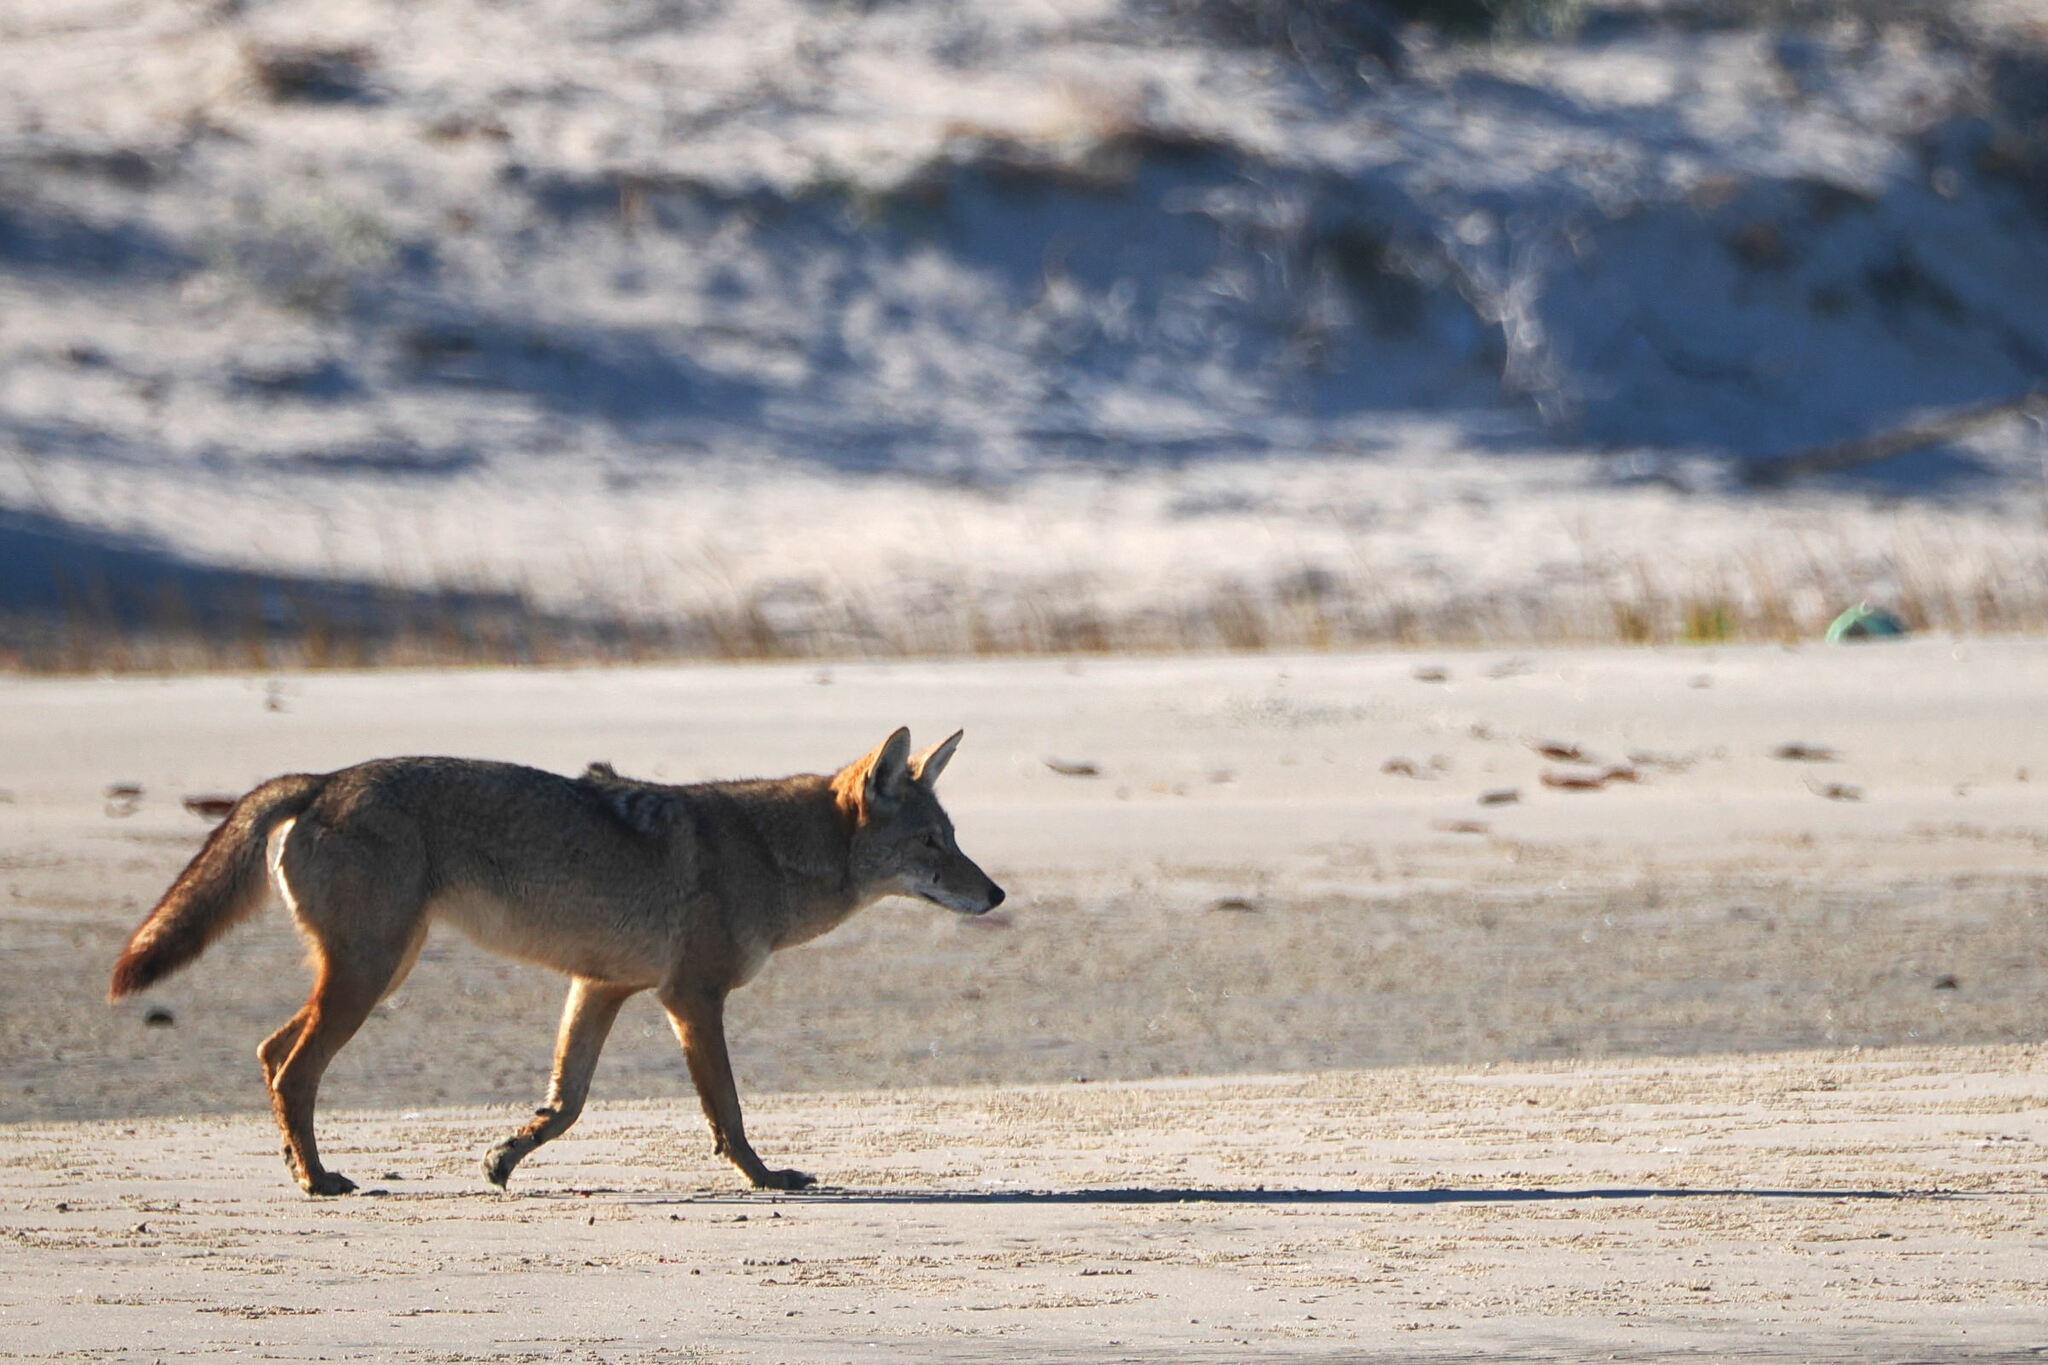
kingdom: Animalia
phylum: Chordata
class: Mammalia
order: Carnivora
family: Canidae
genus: Canis
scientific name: Canis latrans
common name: Coyote
